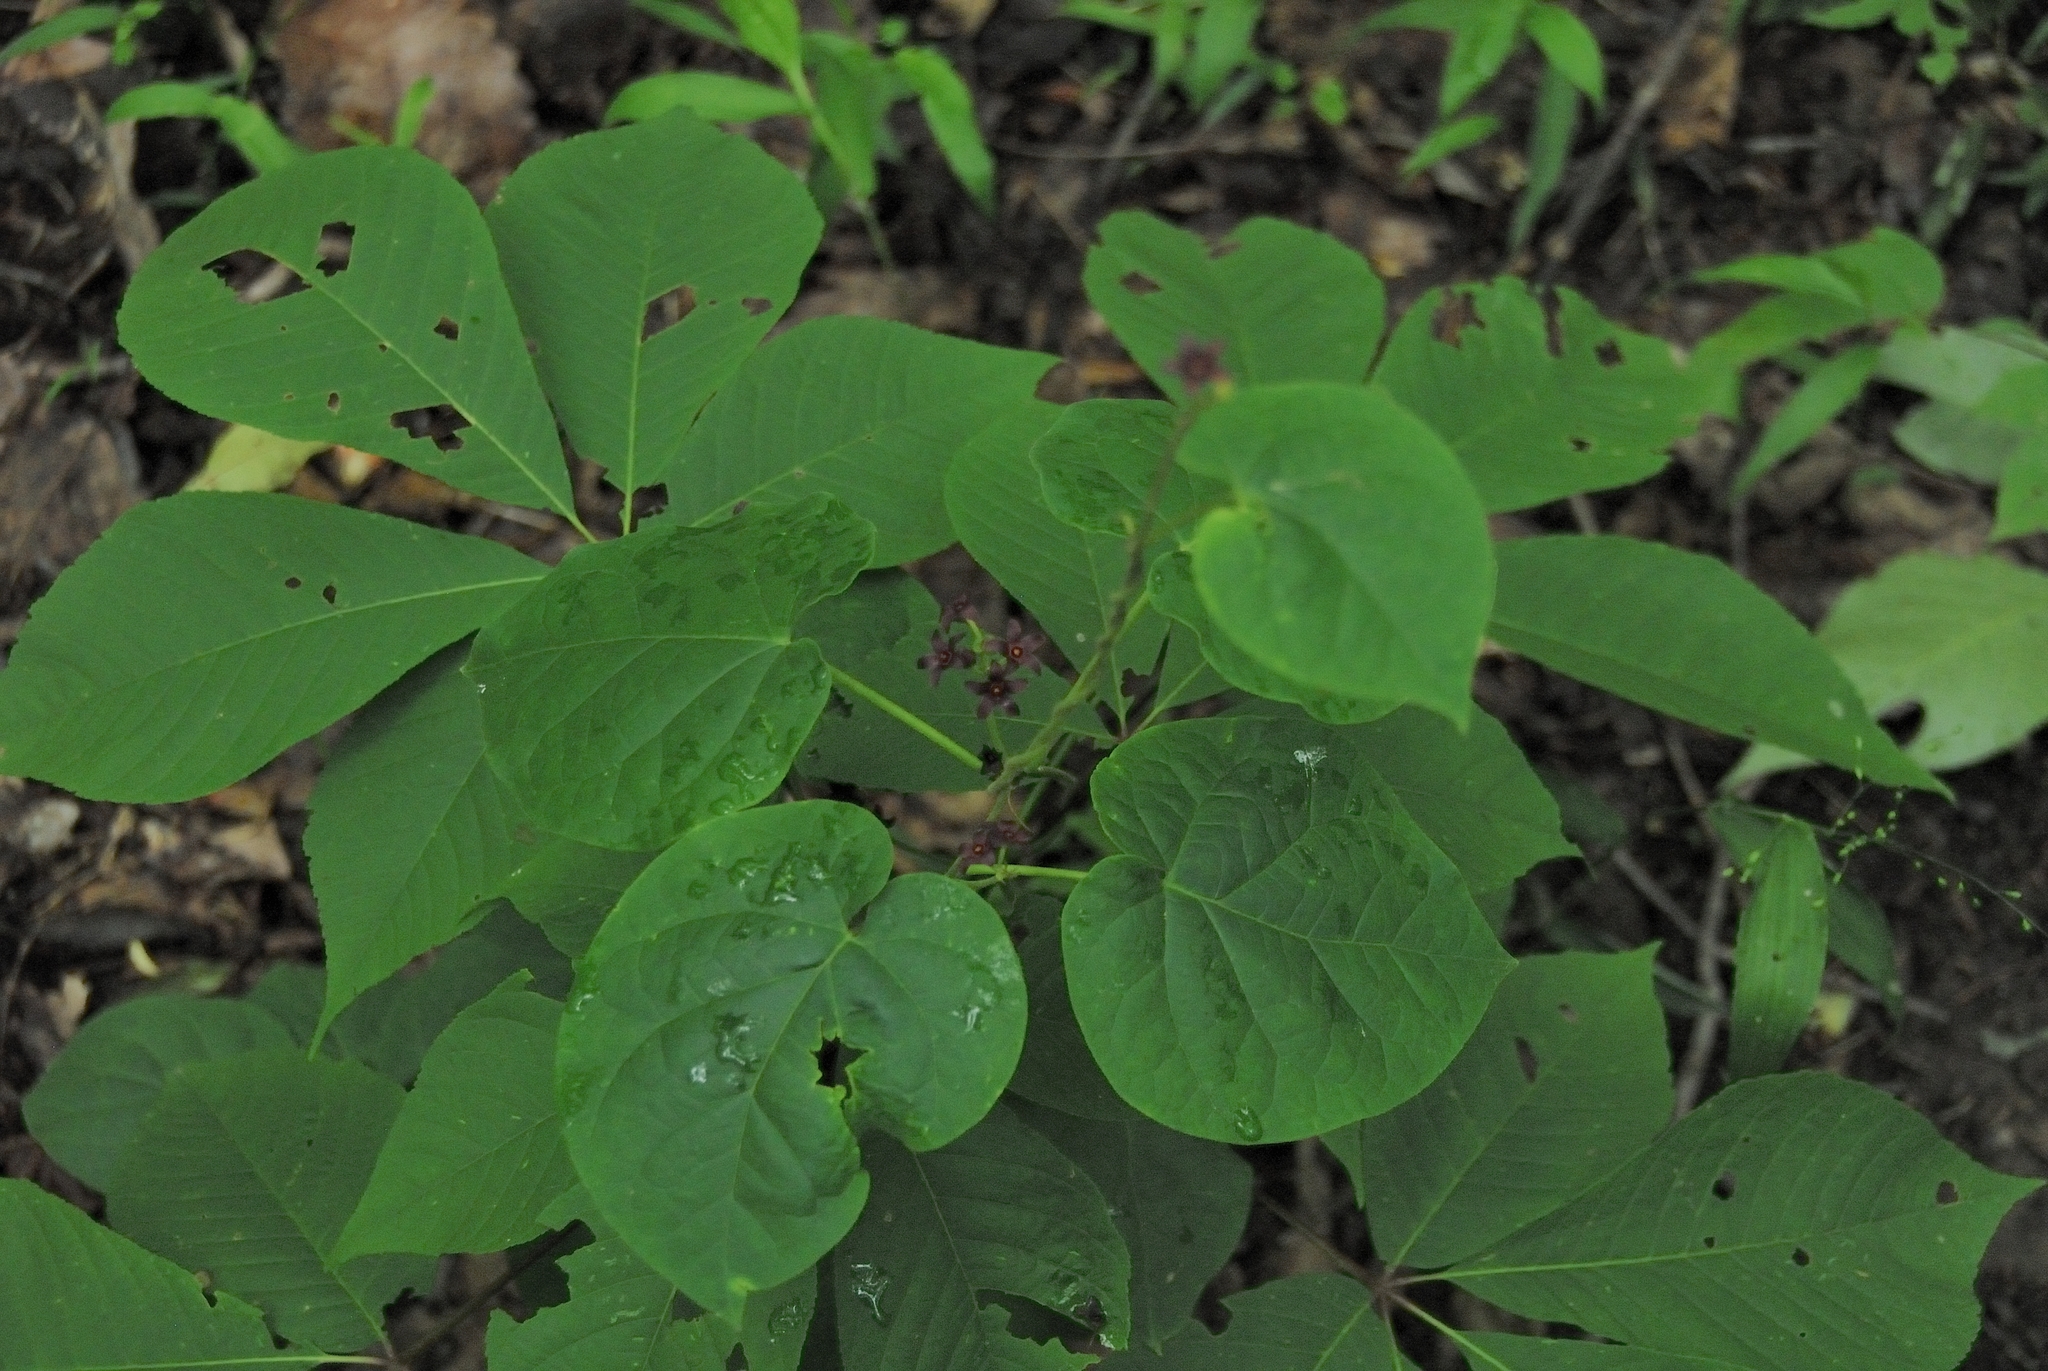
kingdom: Plantae
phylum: Tracheophyta
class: Magnoliopsida
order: Gentianales
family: Apocynaceae
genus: Matelea
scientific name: Matelea carolinensis
